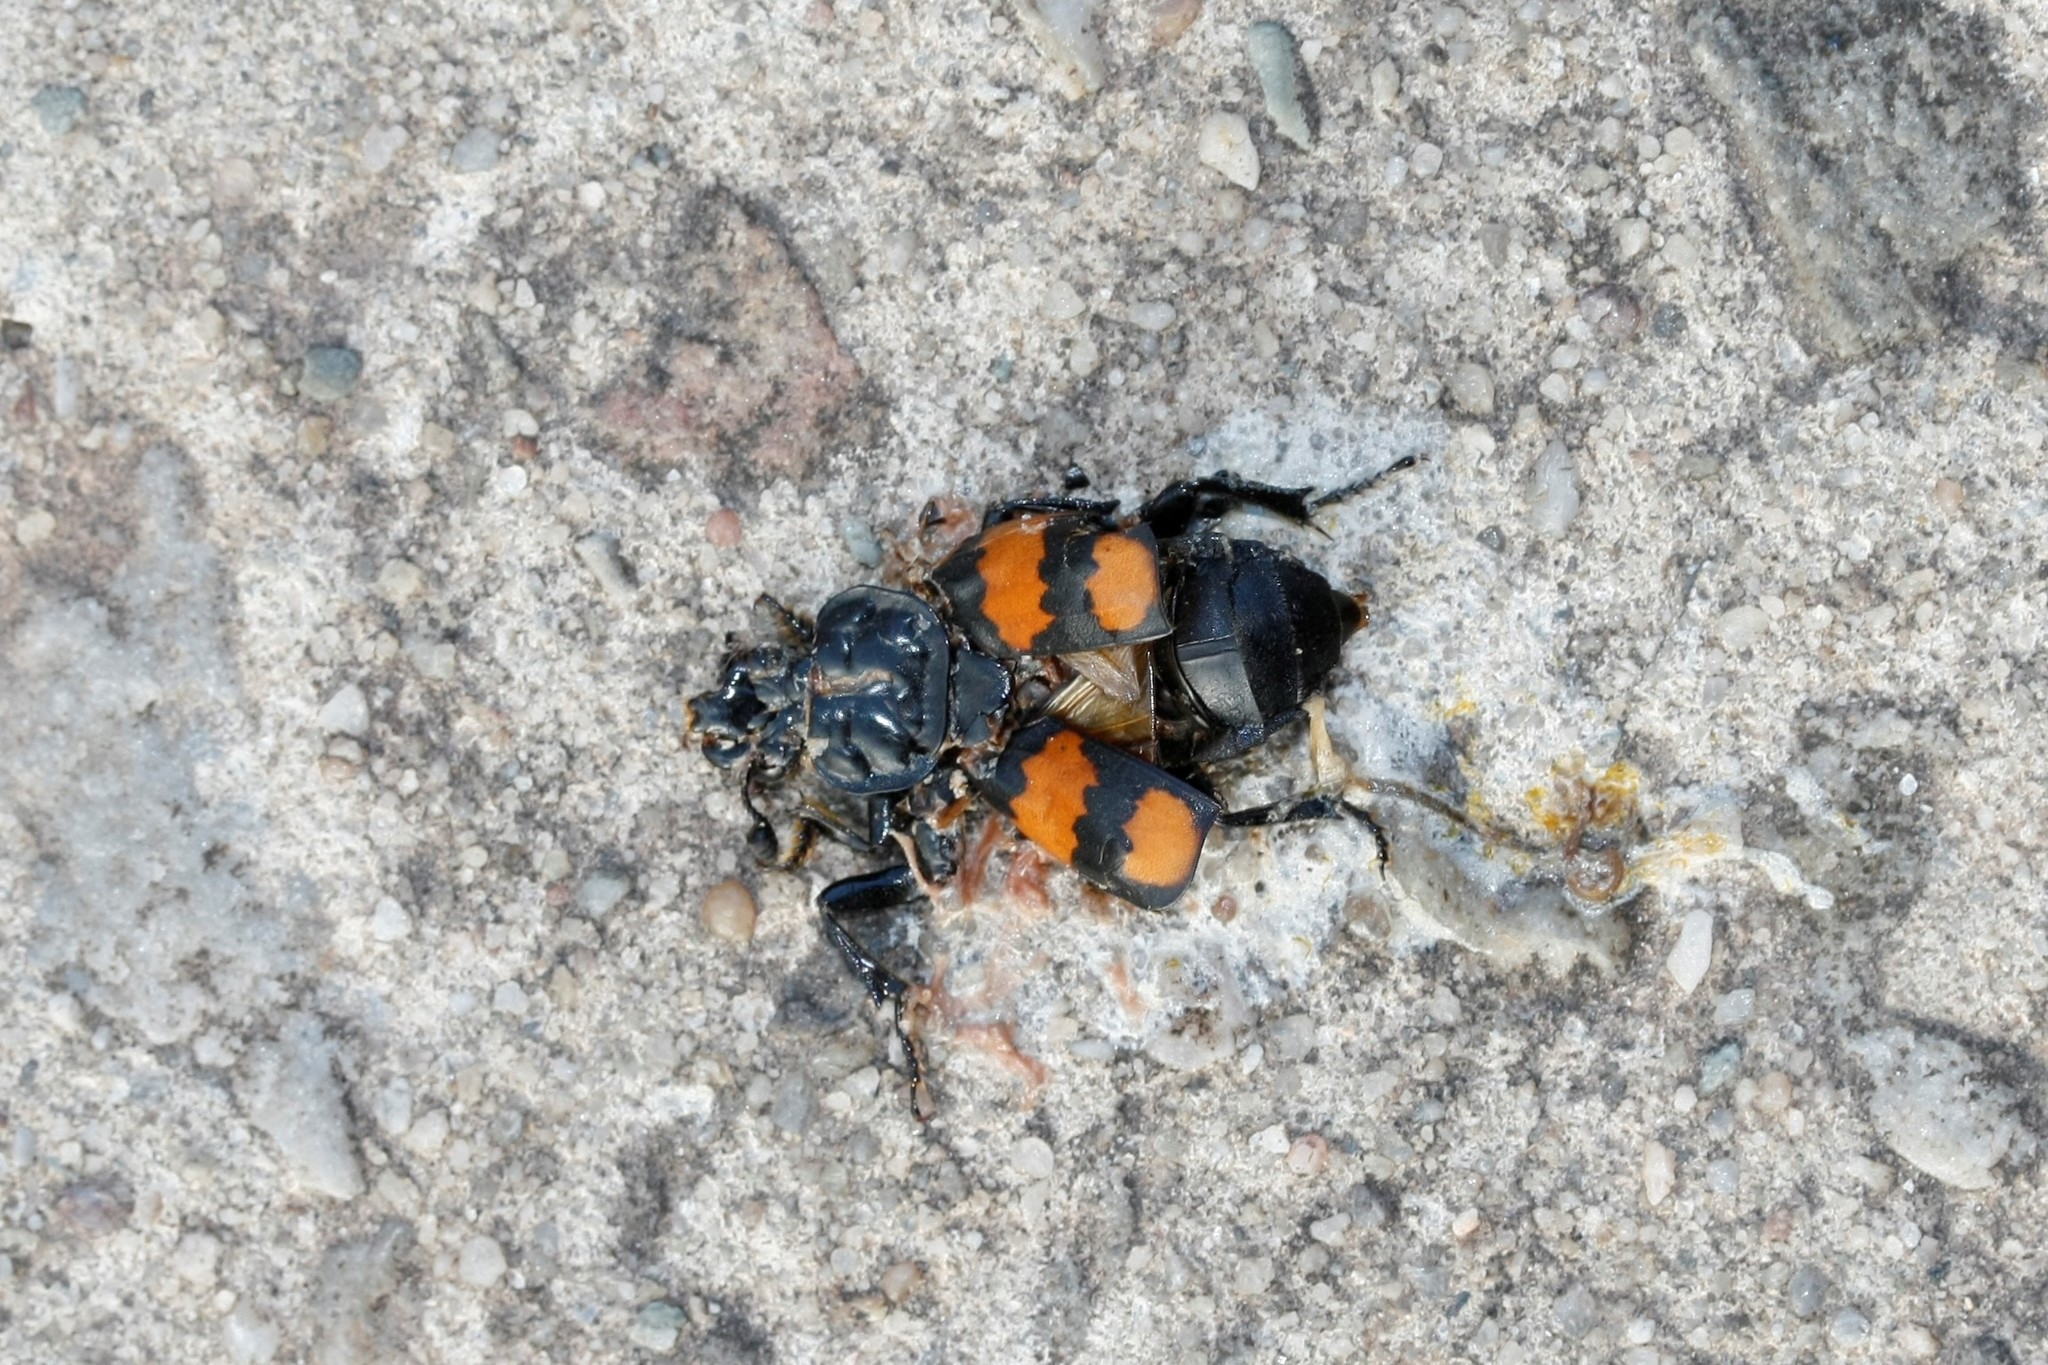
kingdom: Animalia
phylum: Arthropoda
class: Insecta
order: Coleoptera
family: Staphylinidae
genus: Nicrophorus
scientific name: Nicrophorus vespilloides
